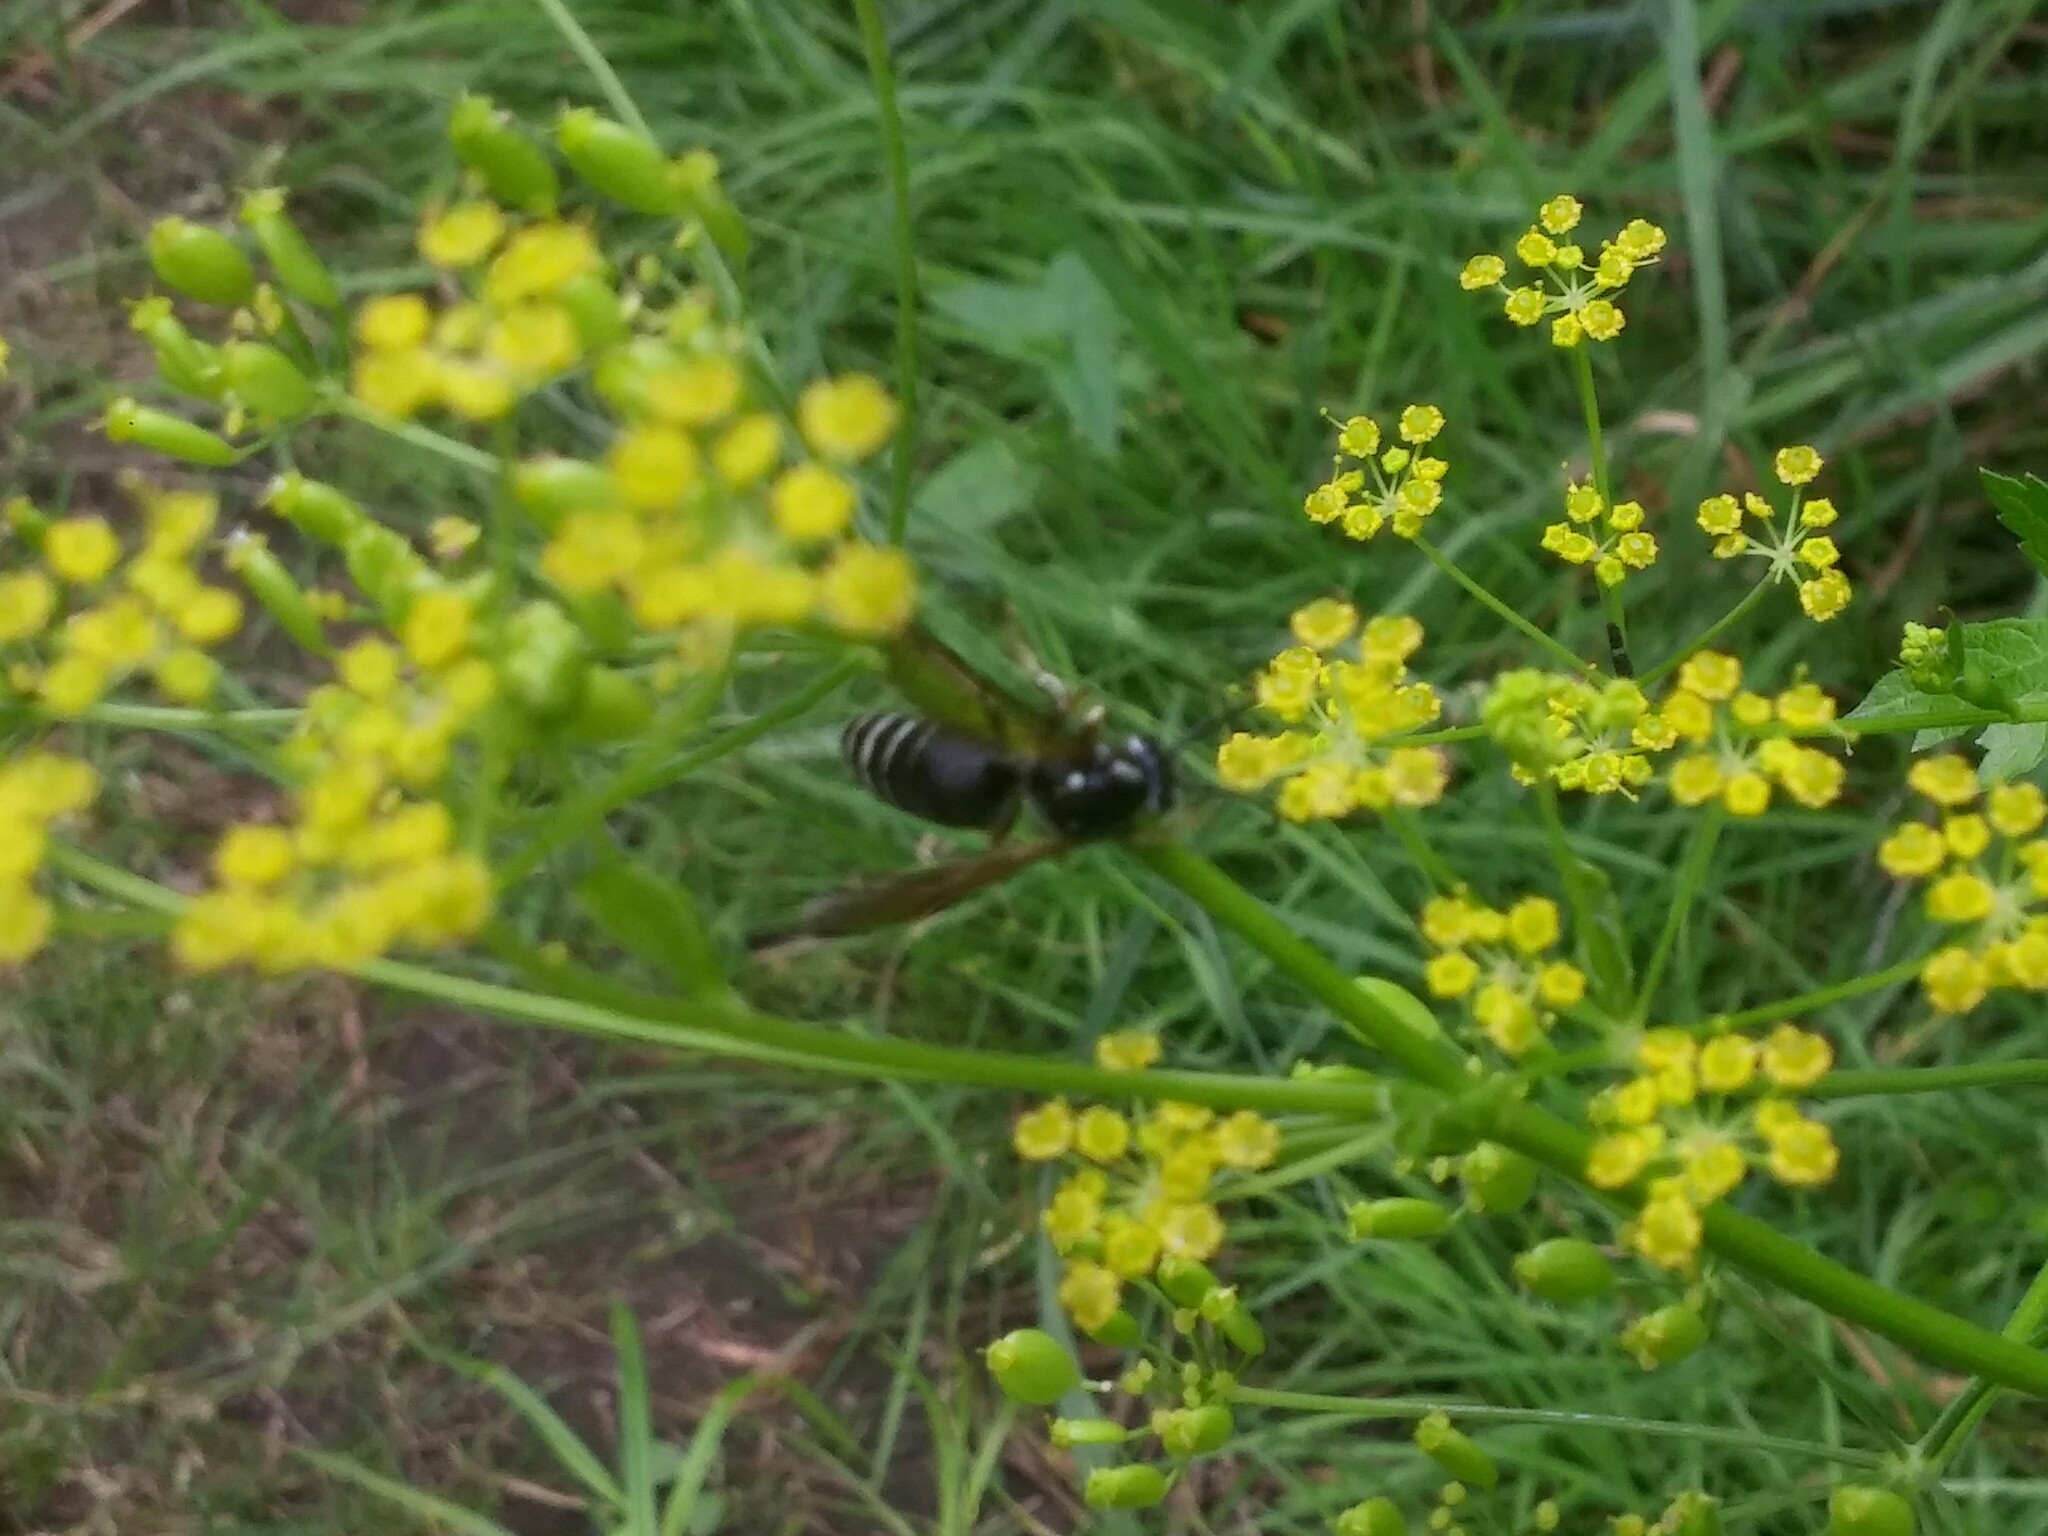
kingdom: Animalia
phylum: Arthropoda
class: Insecta
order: Hymenoptera
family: Vespidae
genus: Dolichovespula
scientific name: Dolichovespula adulterina
